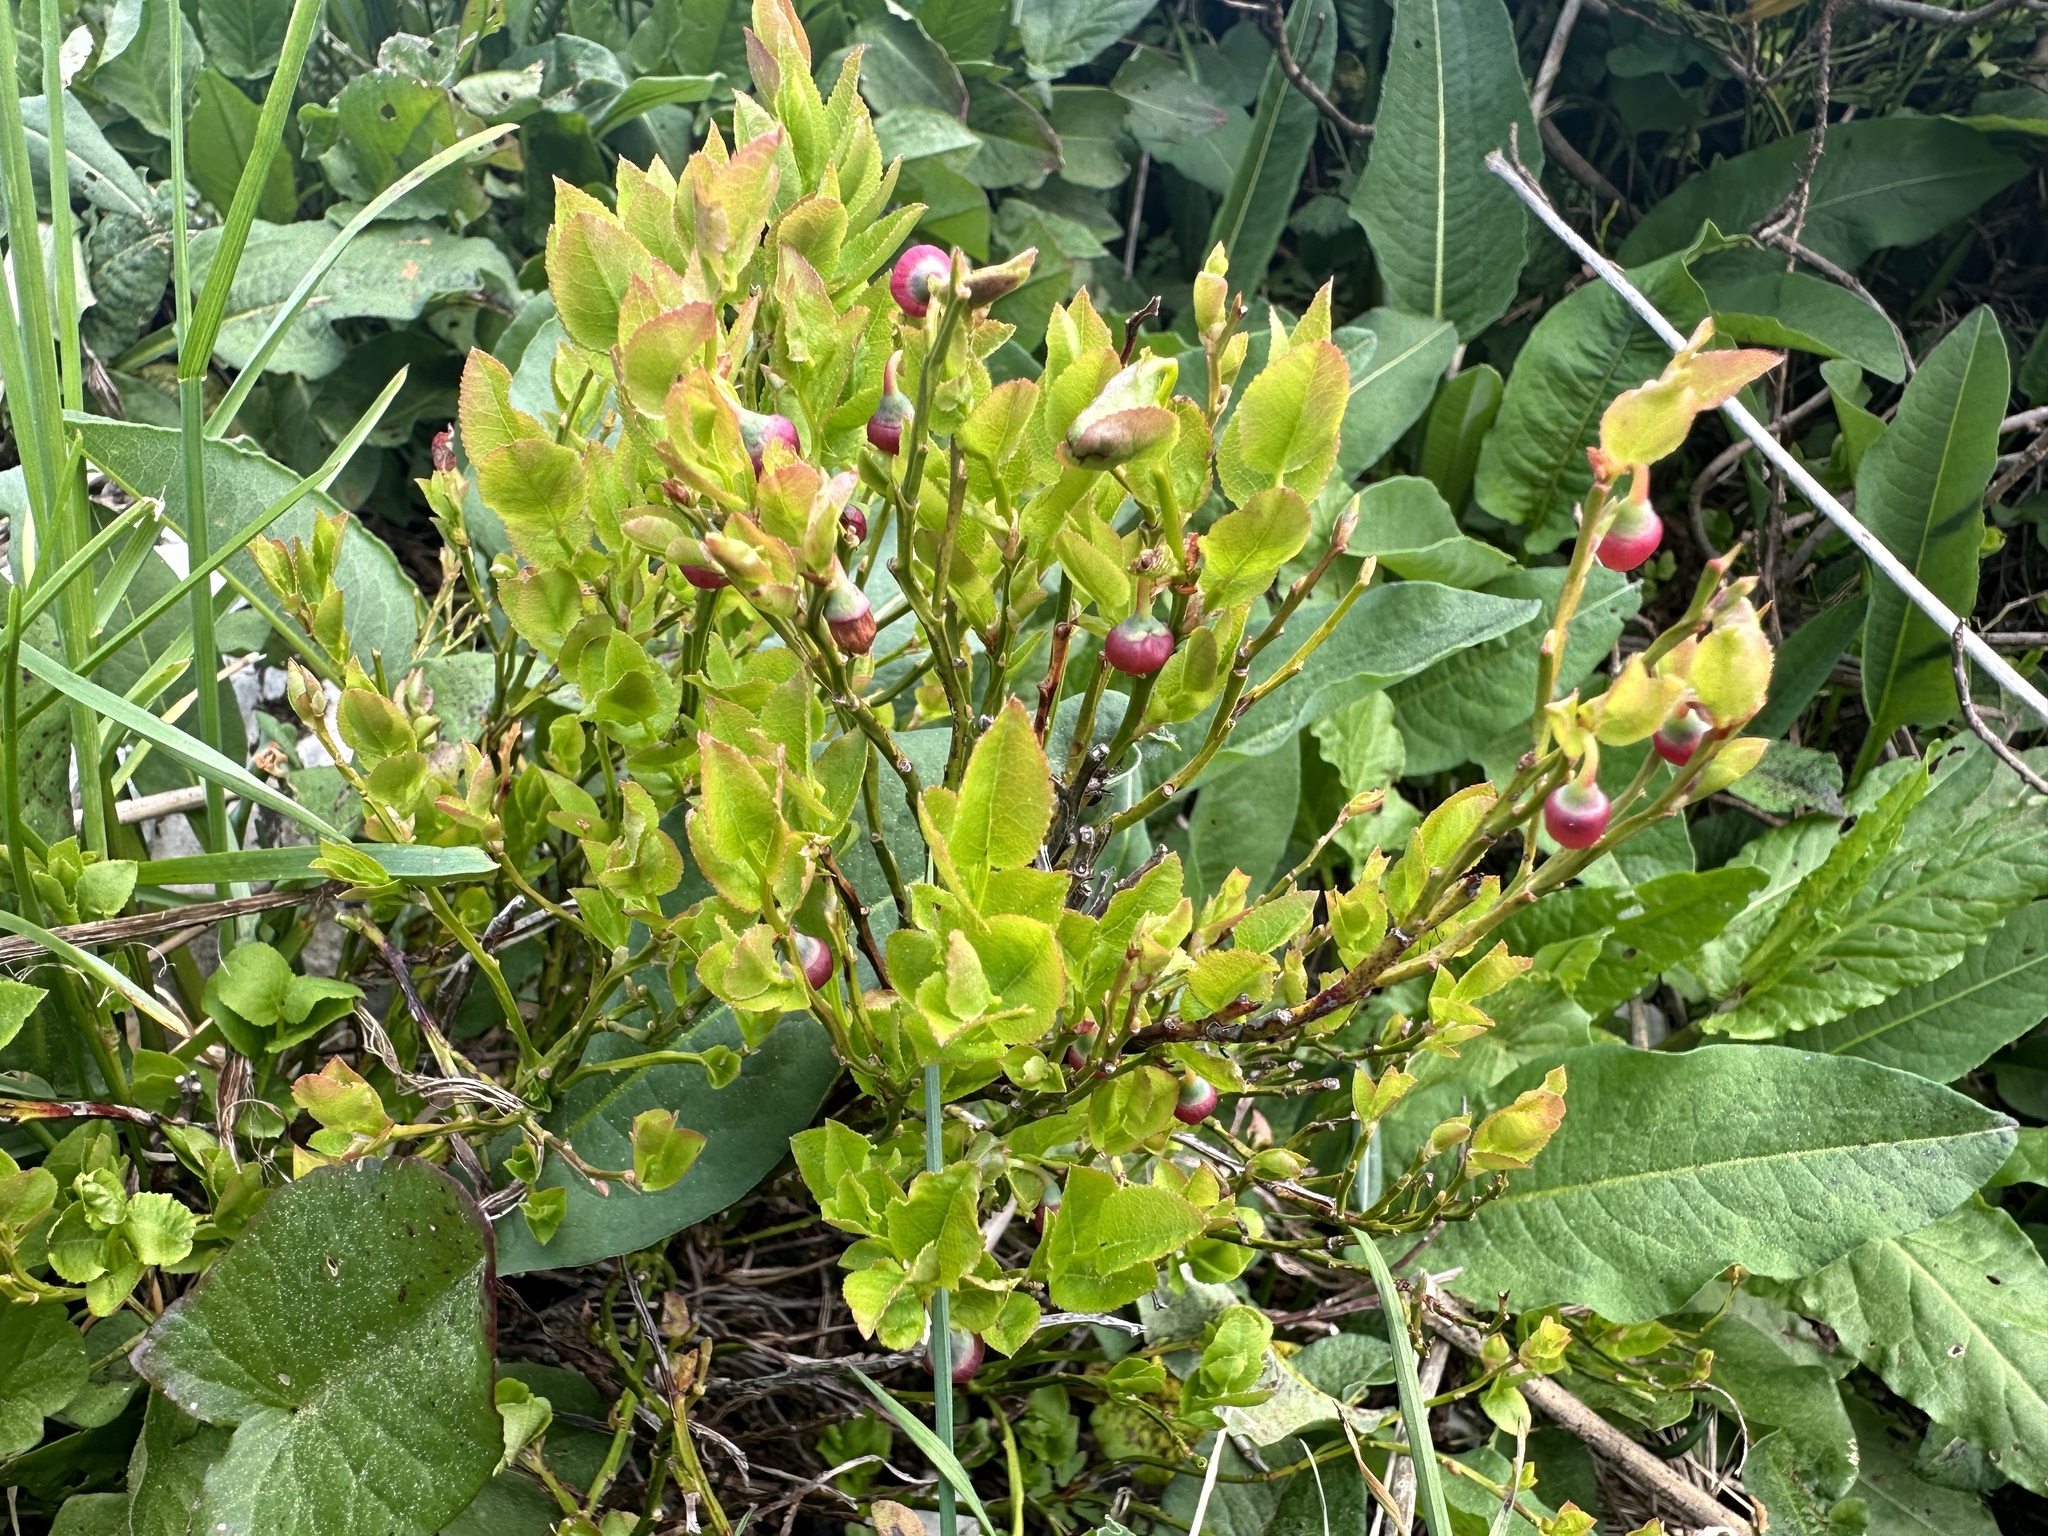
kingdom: Plantae
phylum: Tracheophyta
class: Magnoliopsida
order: Ericales
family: Ericaceae
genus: Vaccinium
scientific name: Vaccinium myrtillus
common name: Bilberry
